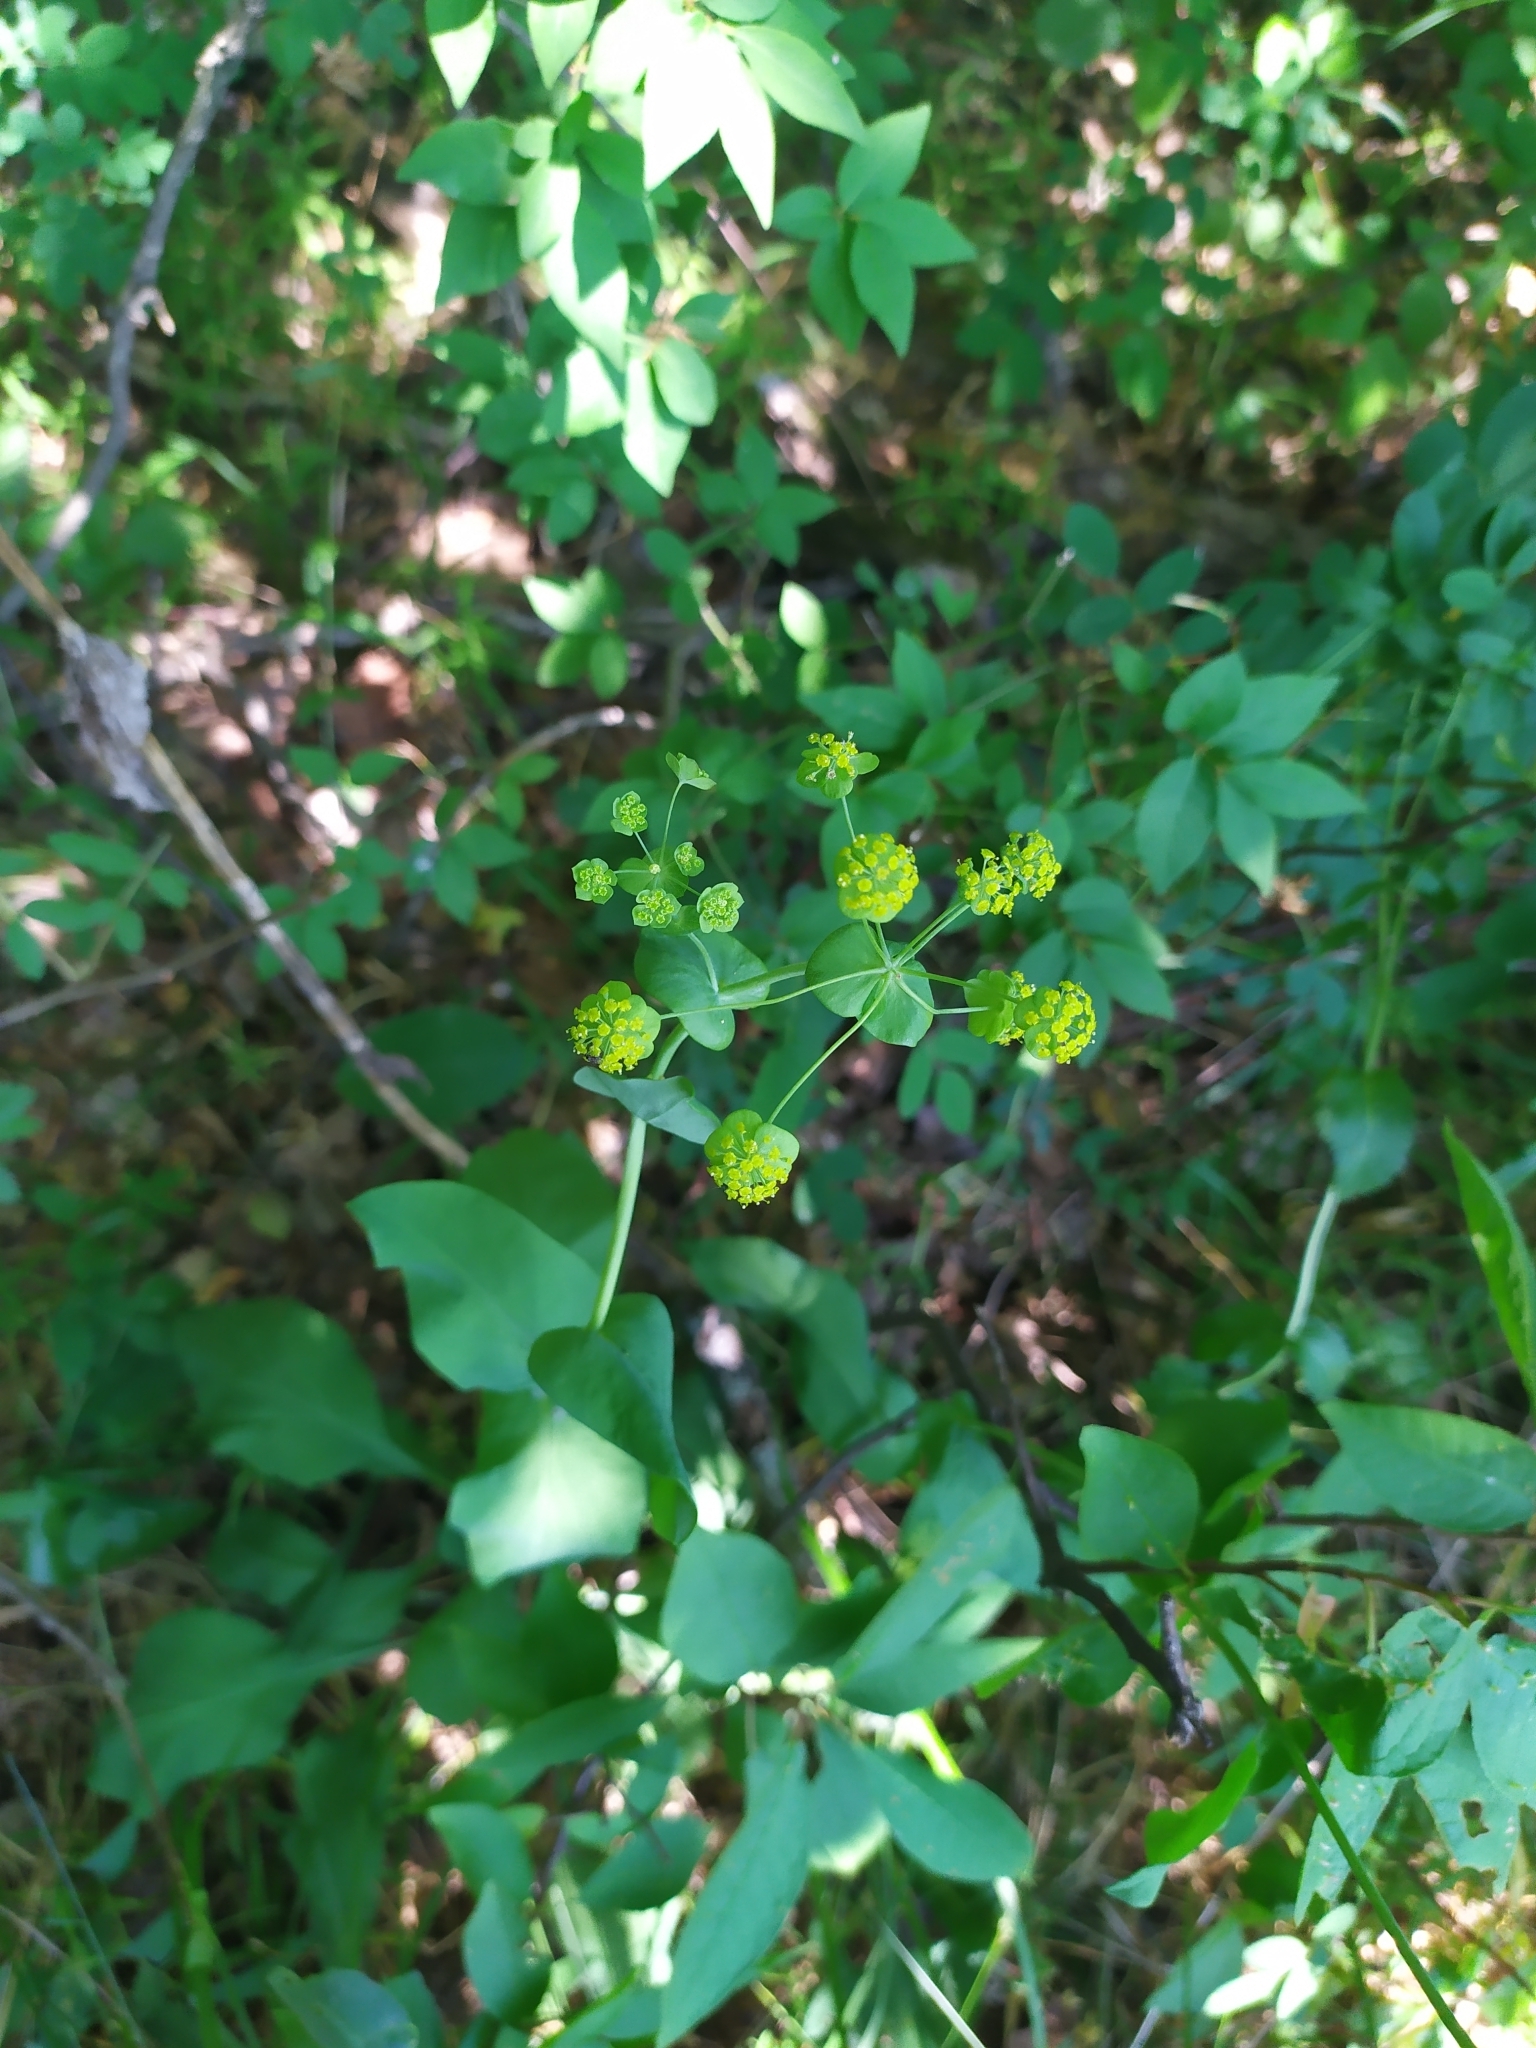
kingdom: Plantae
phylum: Tracheophyta
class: Magnoliopsida
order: Apiales
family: Apiaceae
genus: Bupleurum
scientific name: Bupleurum aureum
